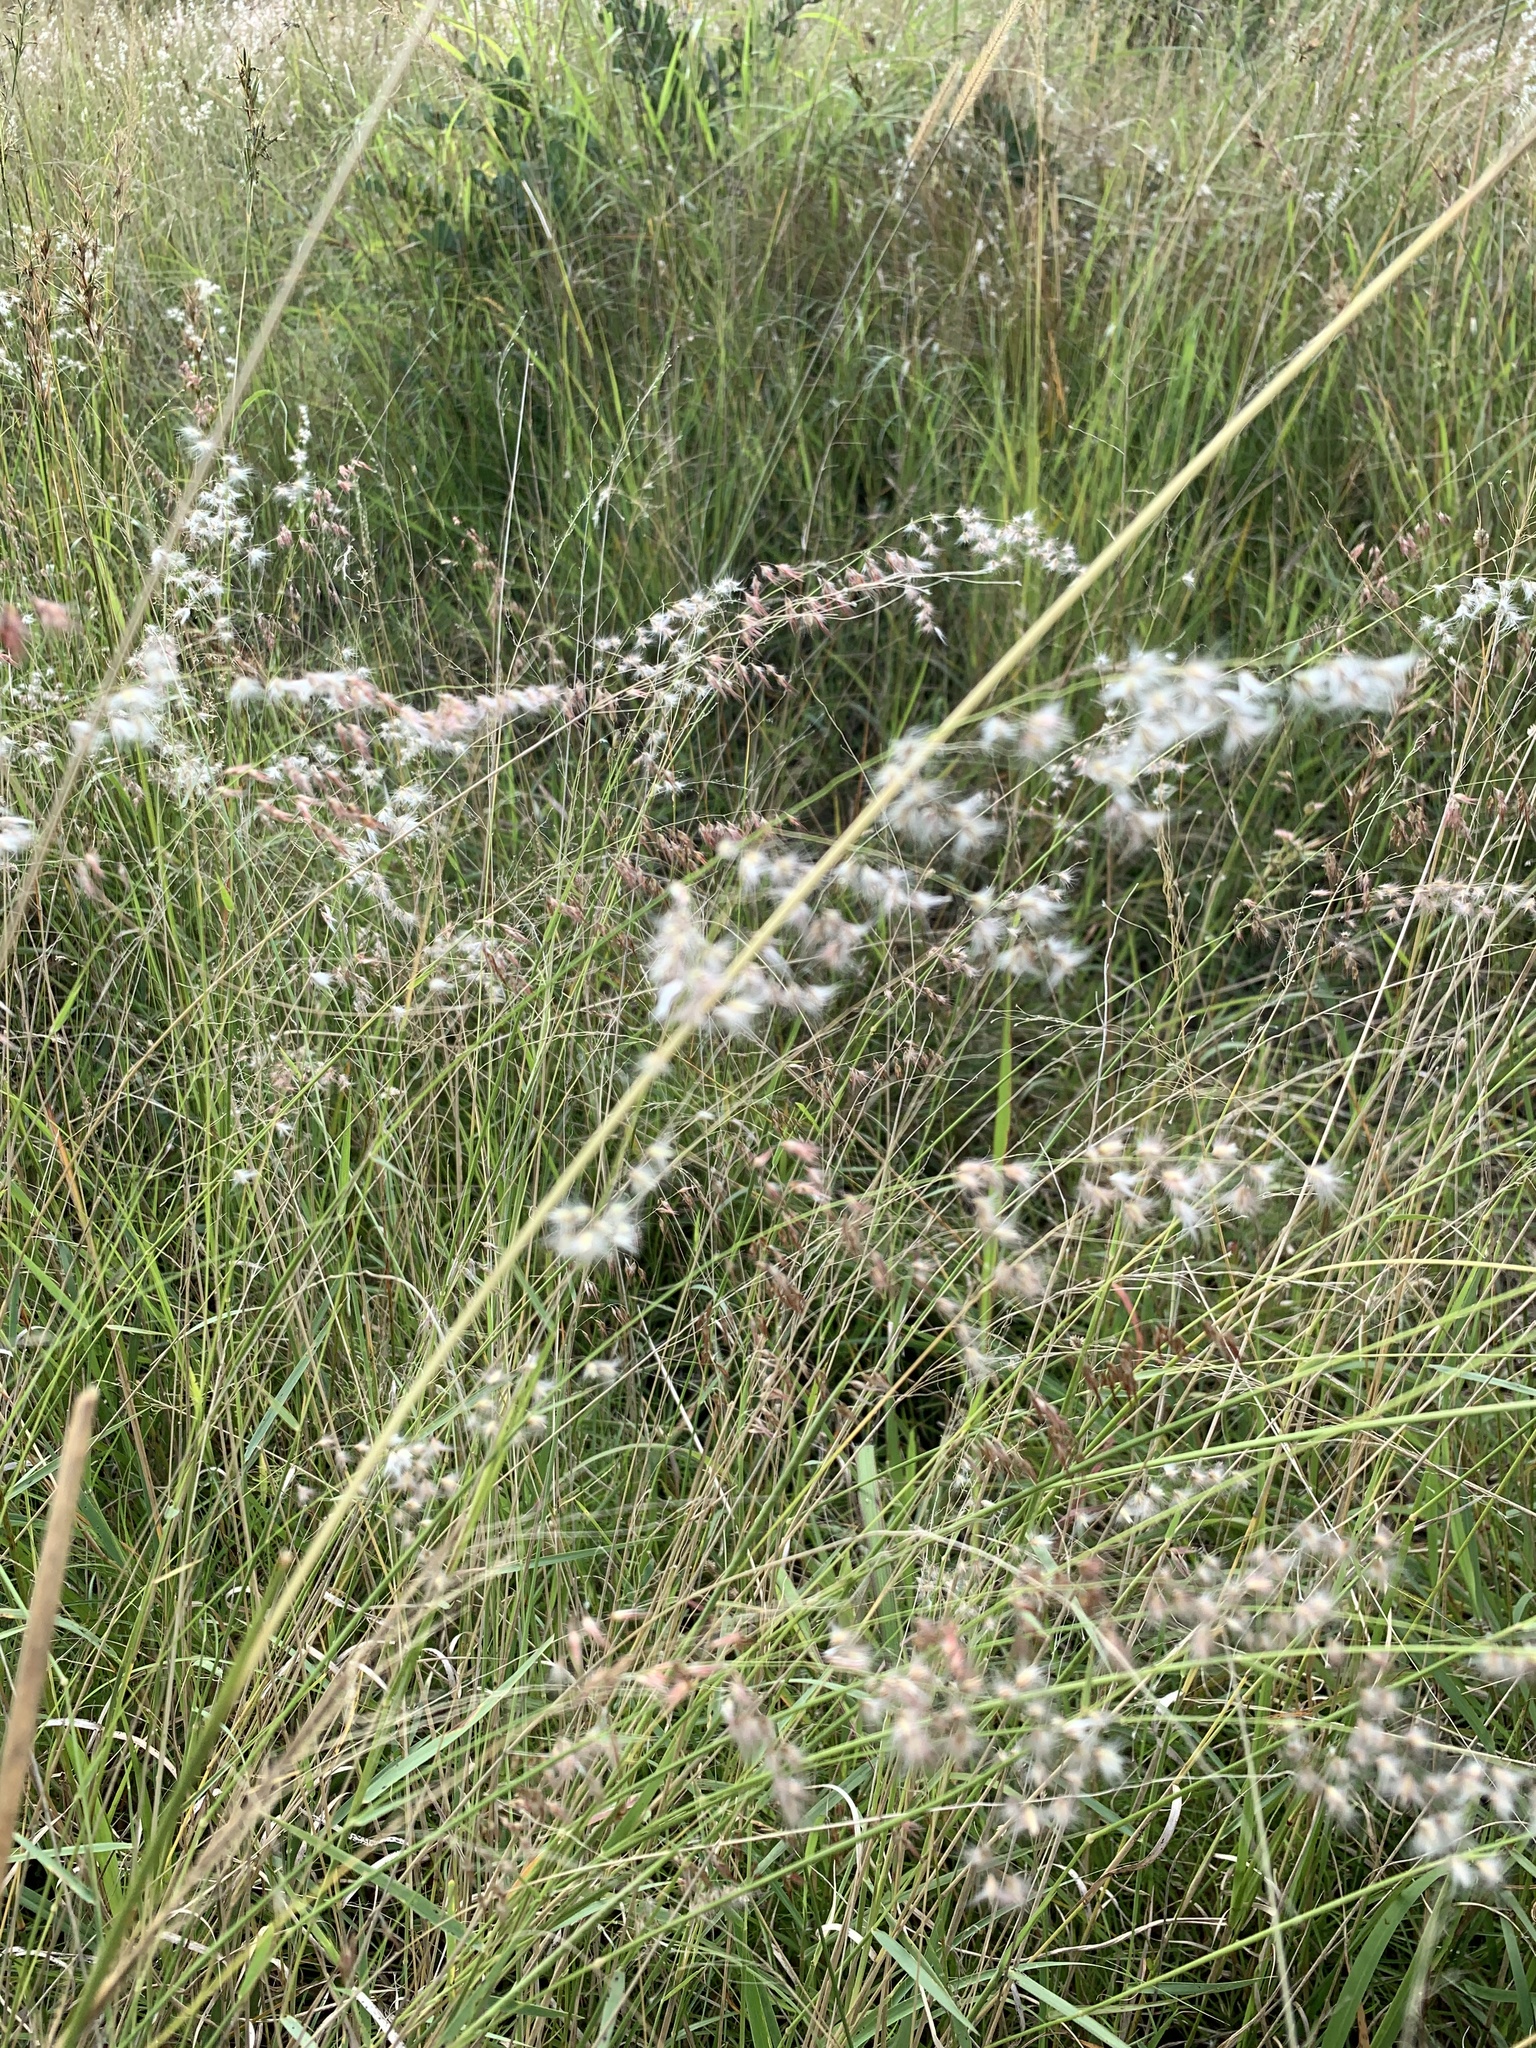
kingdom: Plantae
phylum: Tracheophyta
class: Liliopsida
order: Poales
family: Poaceae
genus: Melinis
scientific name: Melinis repens
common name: Rose natal grass
